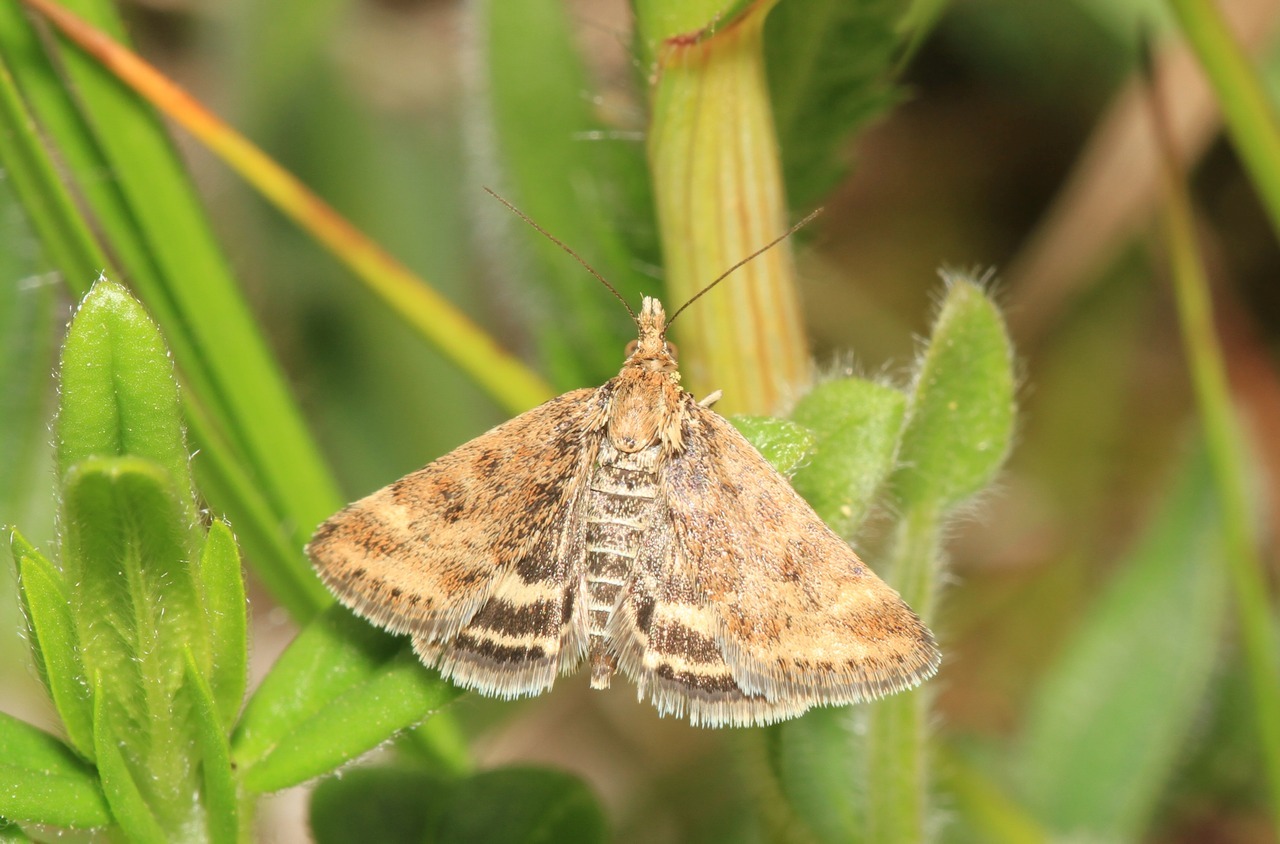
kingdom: Animalia
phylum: Arthropoda
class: Insecta
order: Lepidoptera
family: Crambidae
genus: Pyrausta
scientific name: Pyrausta despicata
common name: Straw-barred pearl
